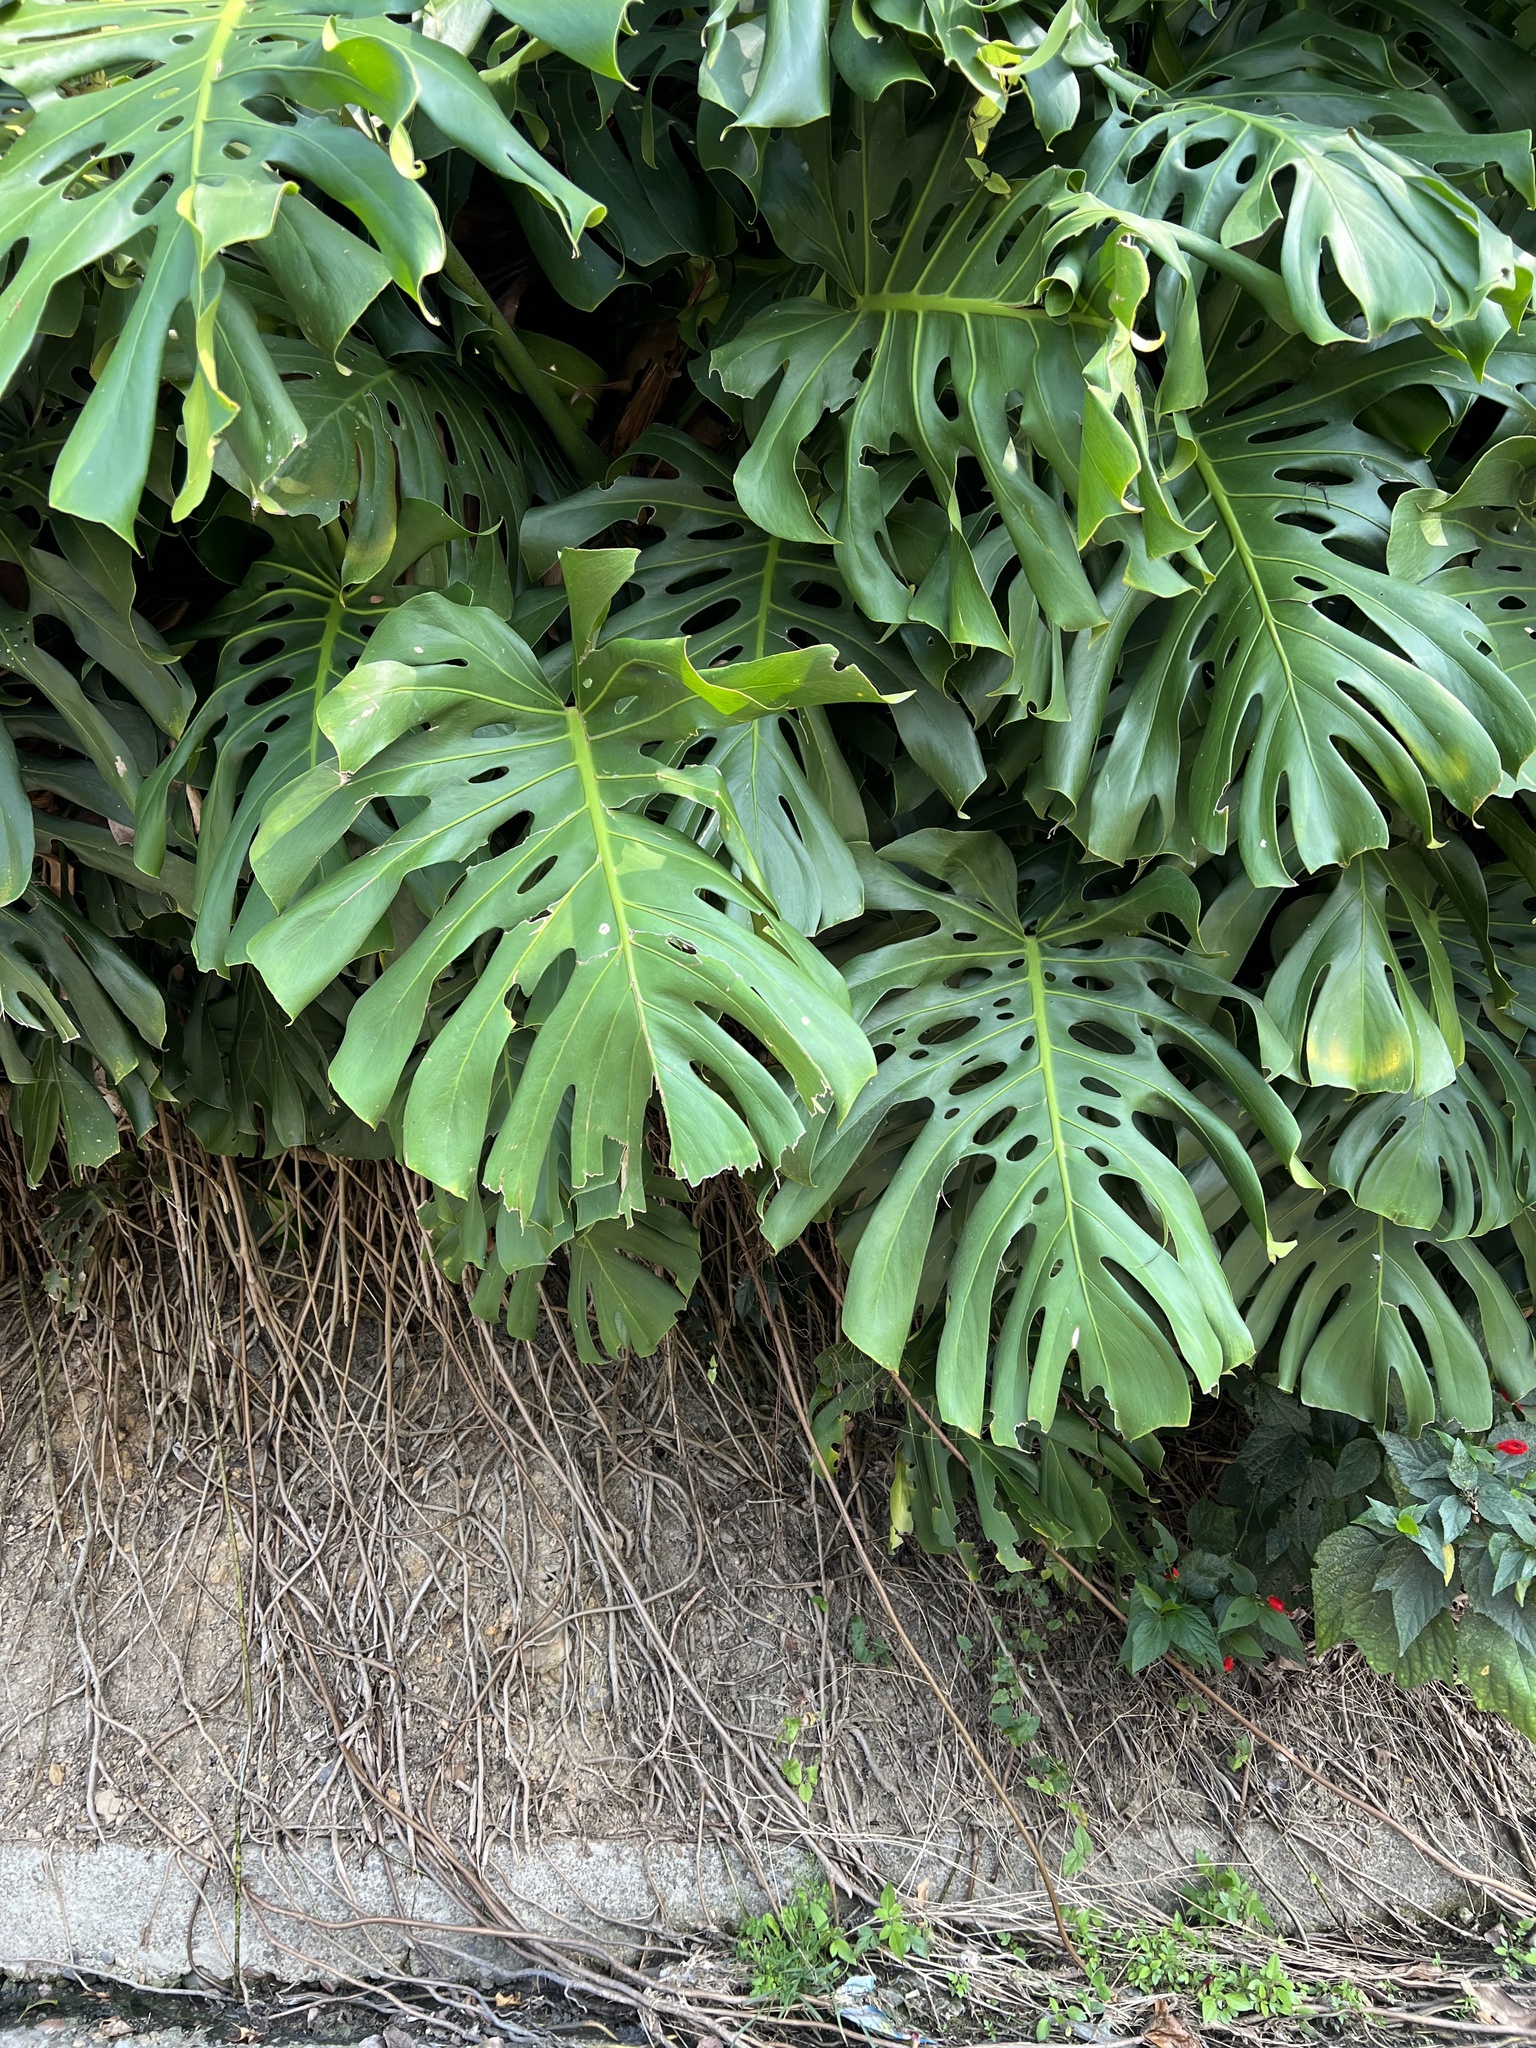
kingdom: Plantae
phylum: Tracheophyta
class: Liliopsida
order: Alismatales
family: Araceae
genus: Monstera
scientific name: Monstera deliciosa
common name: Cut-leaf-philodendron
